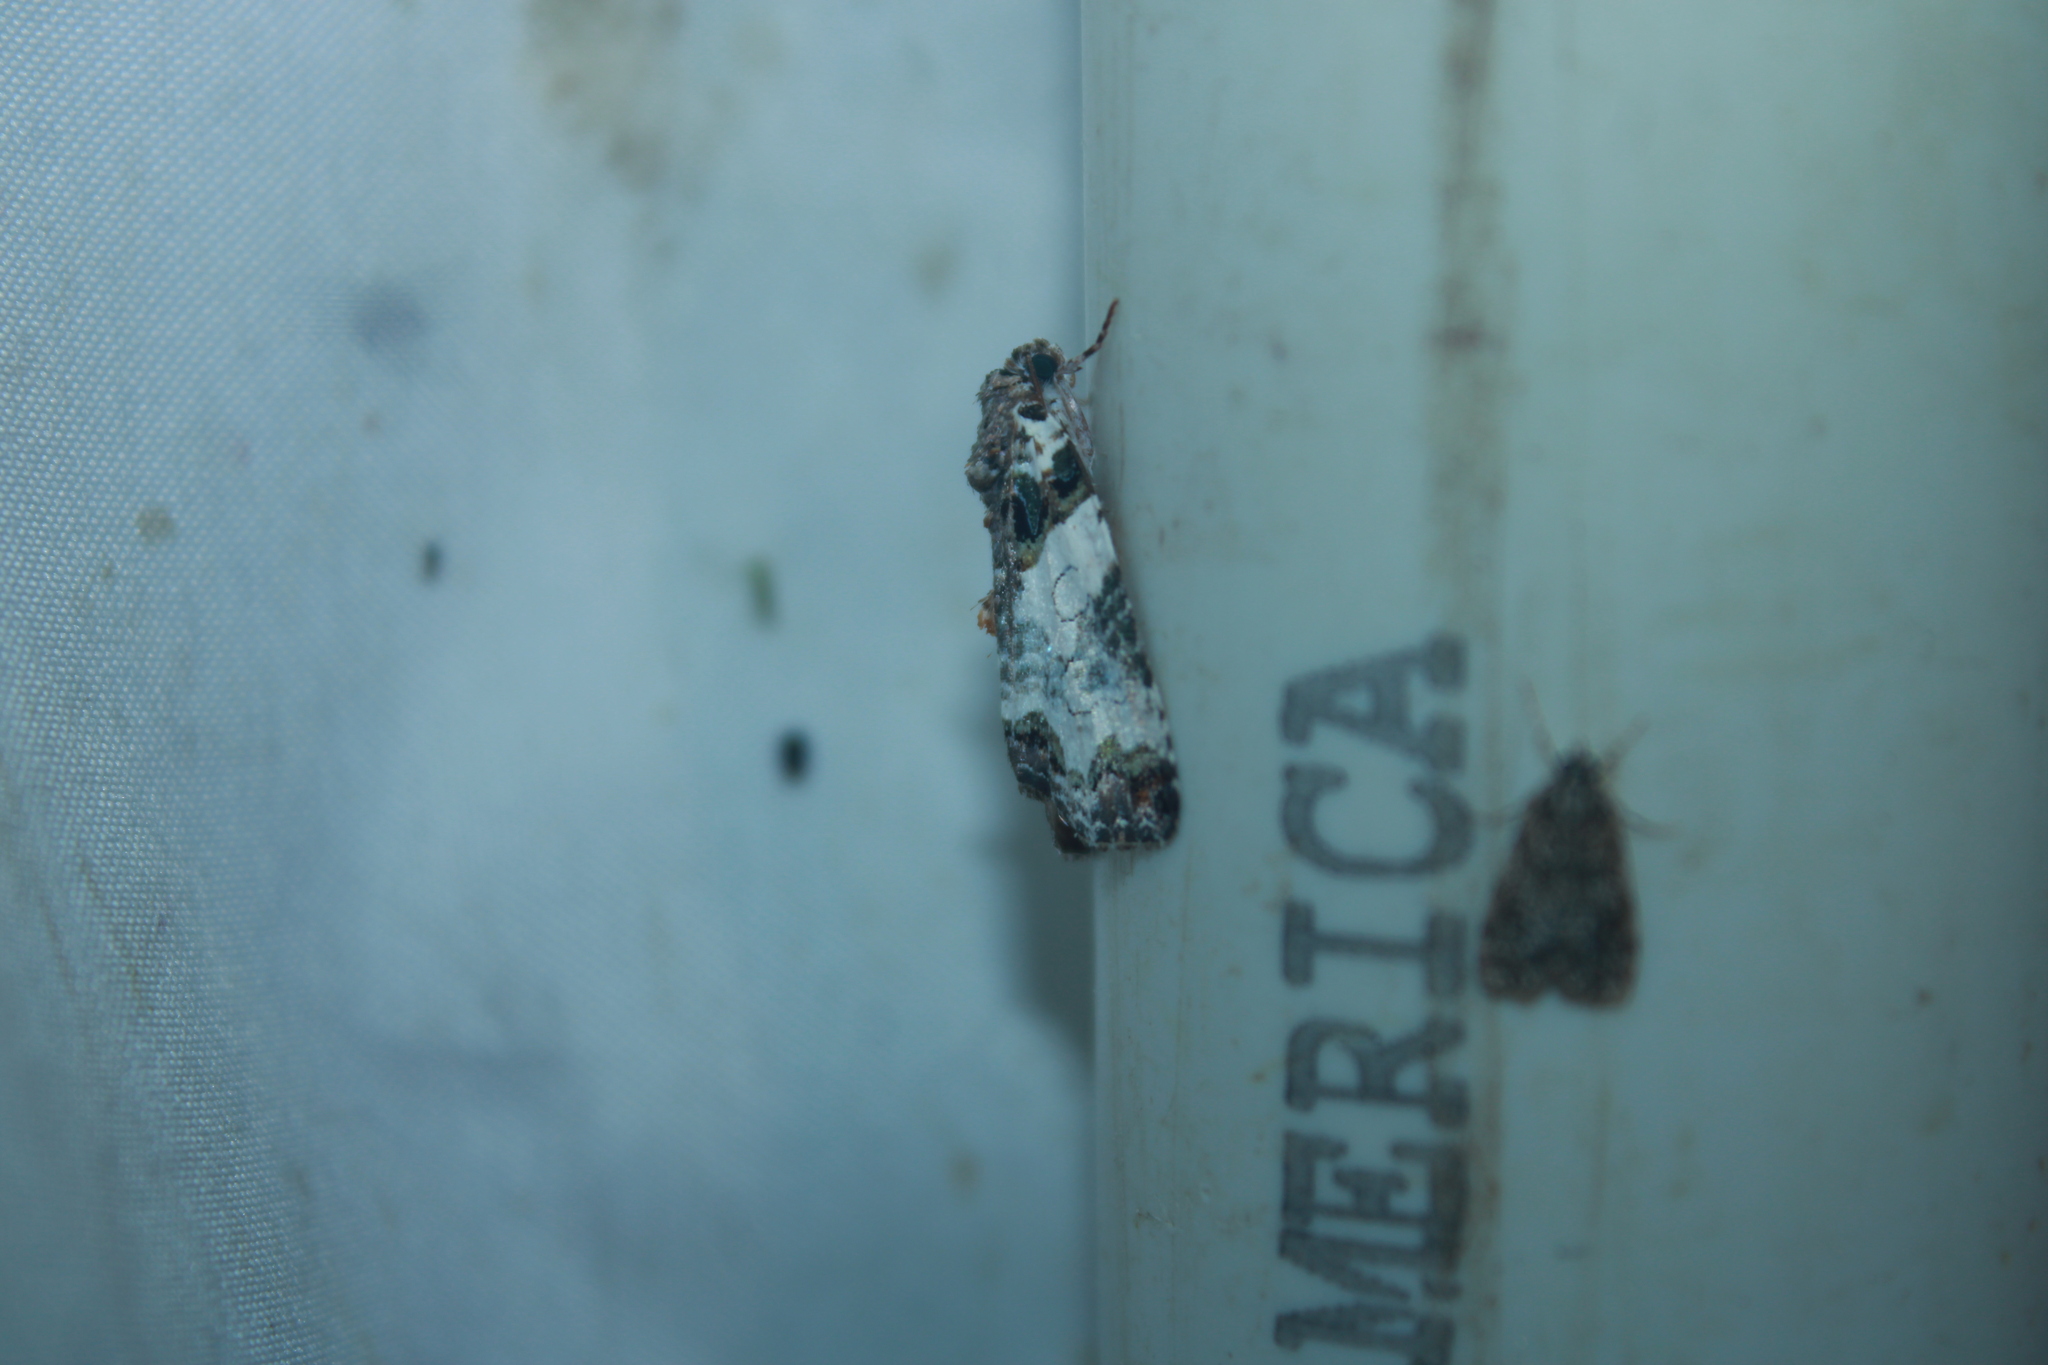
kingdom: Animalia
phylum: Arthropoda
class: Insecta
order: Lepidoptera
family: Noctuidae
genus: Cerma
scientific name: Cerma cerintha
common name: Tufted bird-dropping moth
